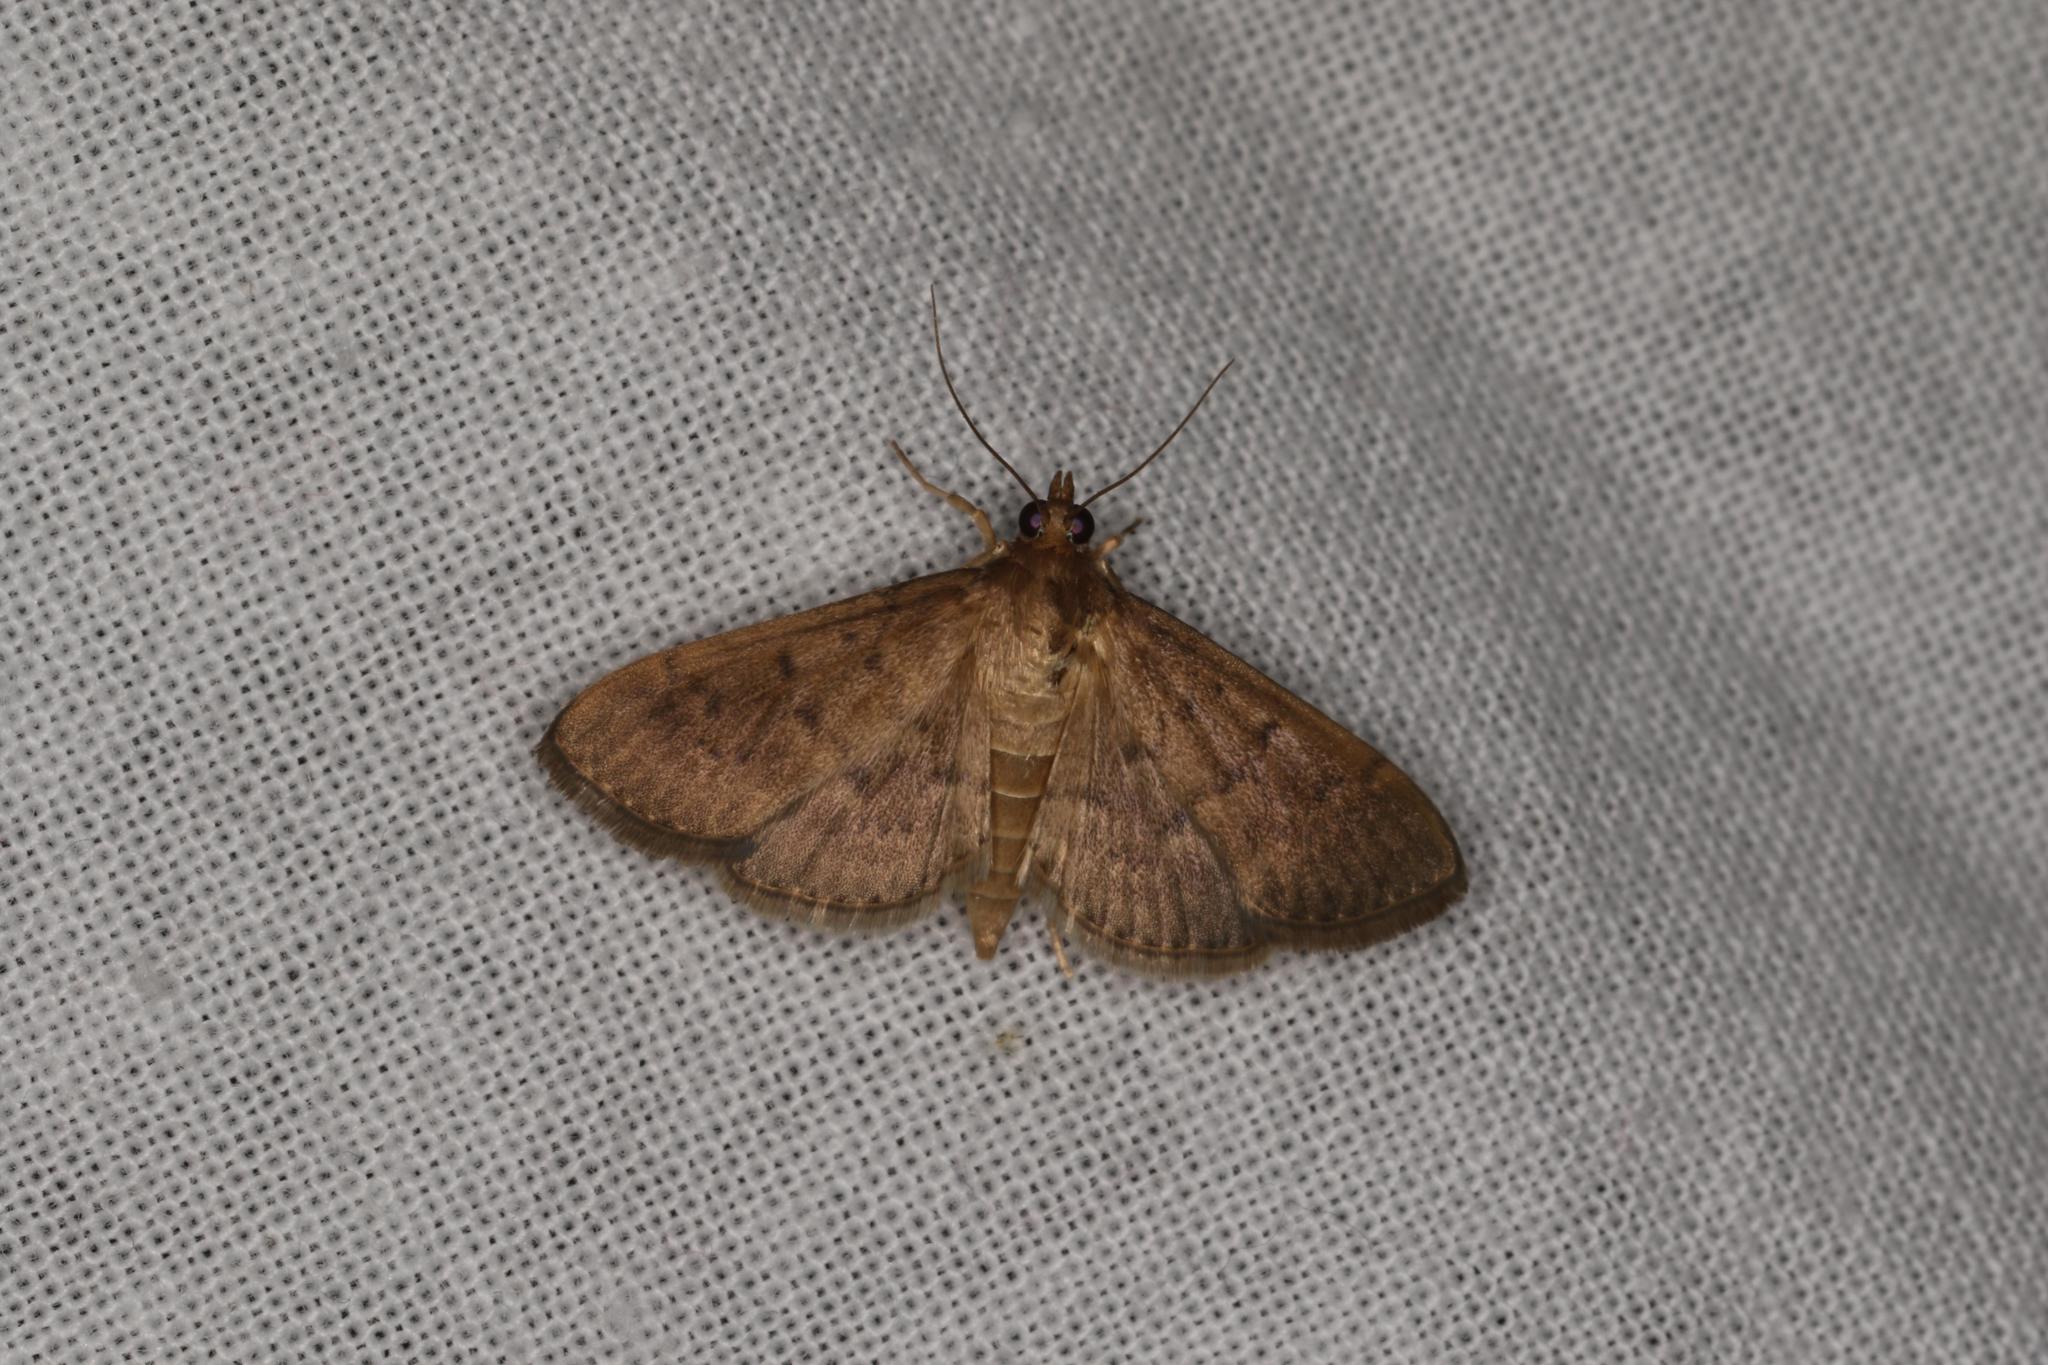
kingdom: Animalia
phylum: Arthropoda
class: Insecta
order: Lepidoptera
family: Crambidae
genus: Herpetogramma
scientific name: Herpetogramma licarsisalis
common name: Grass webworm
